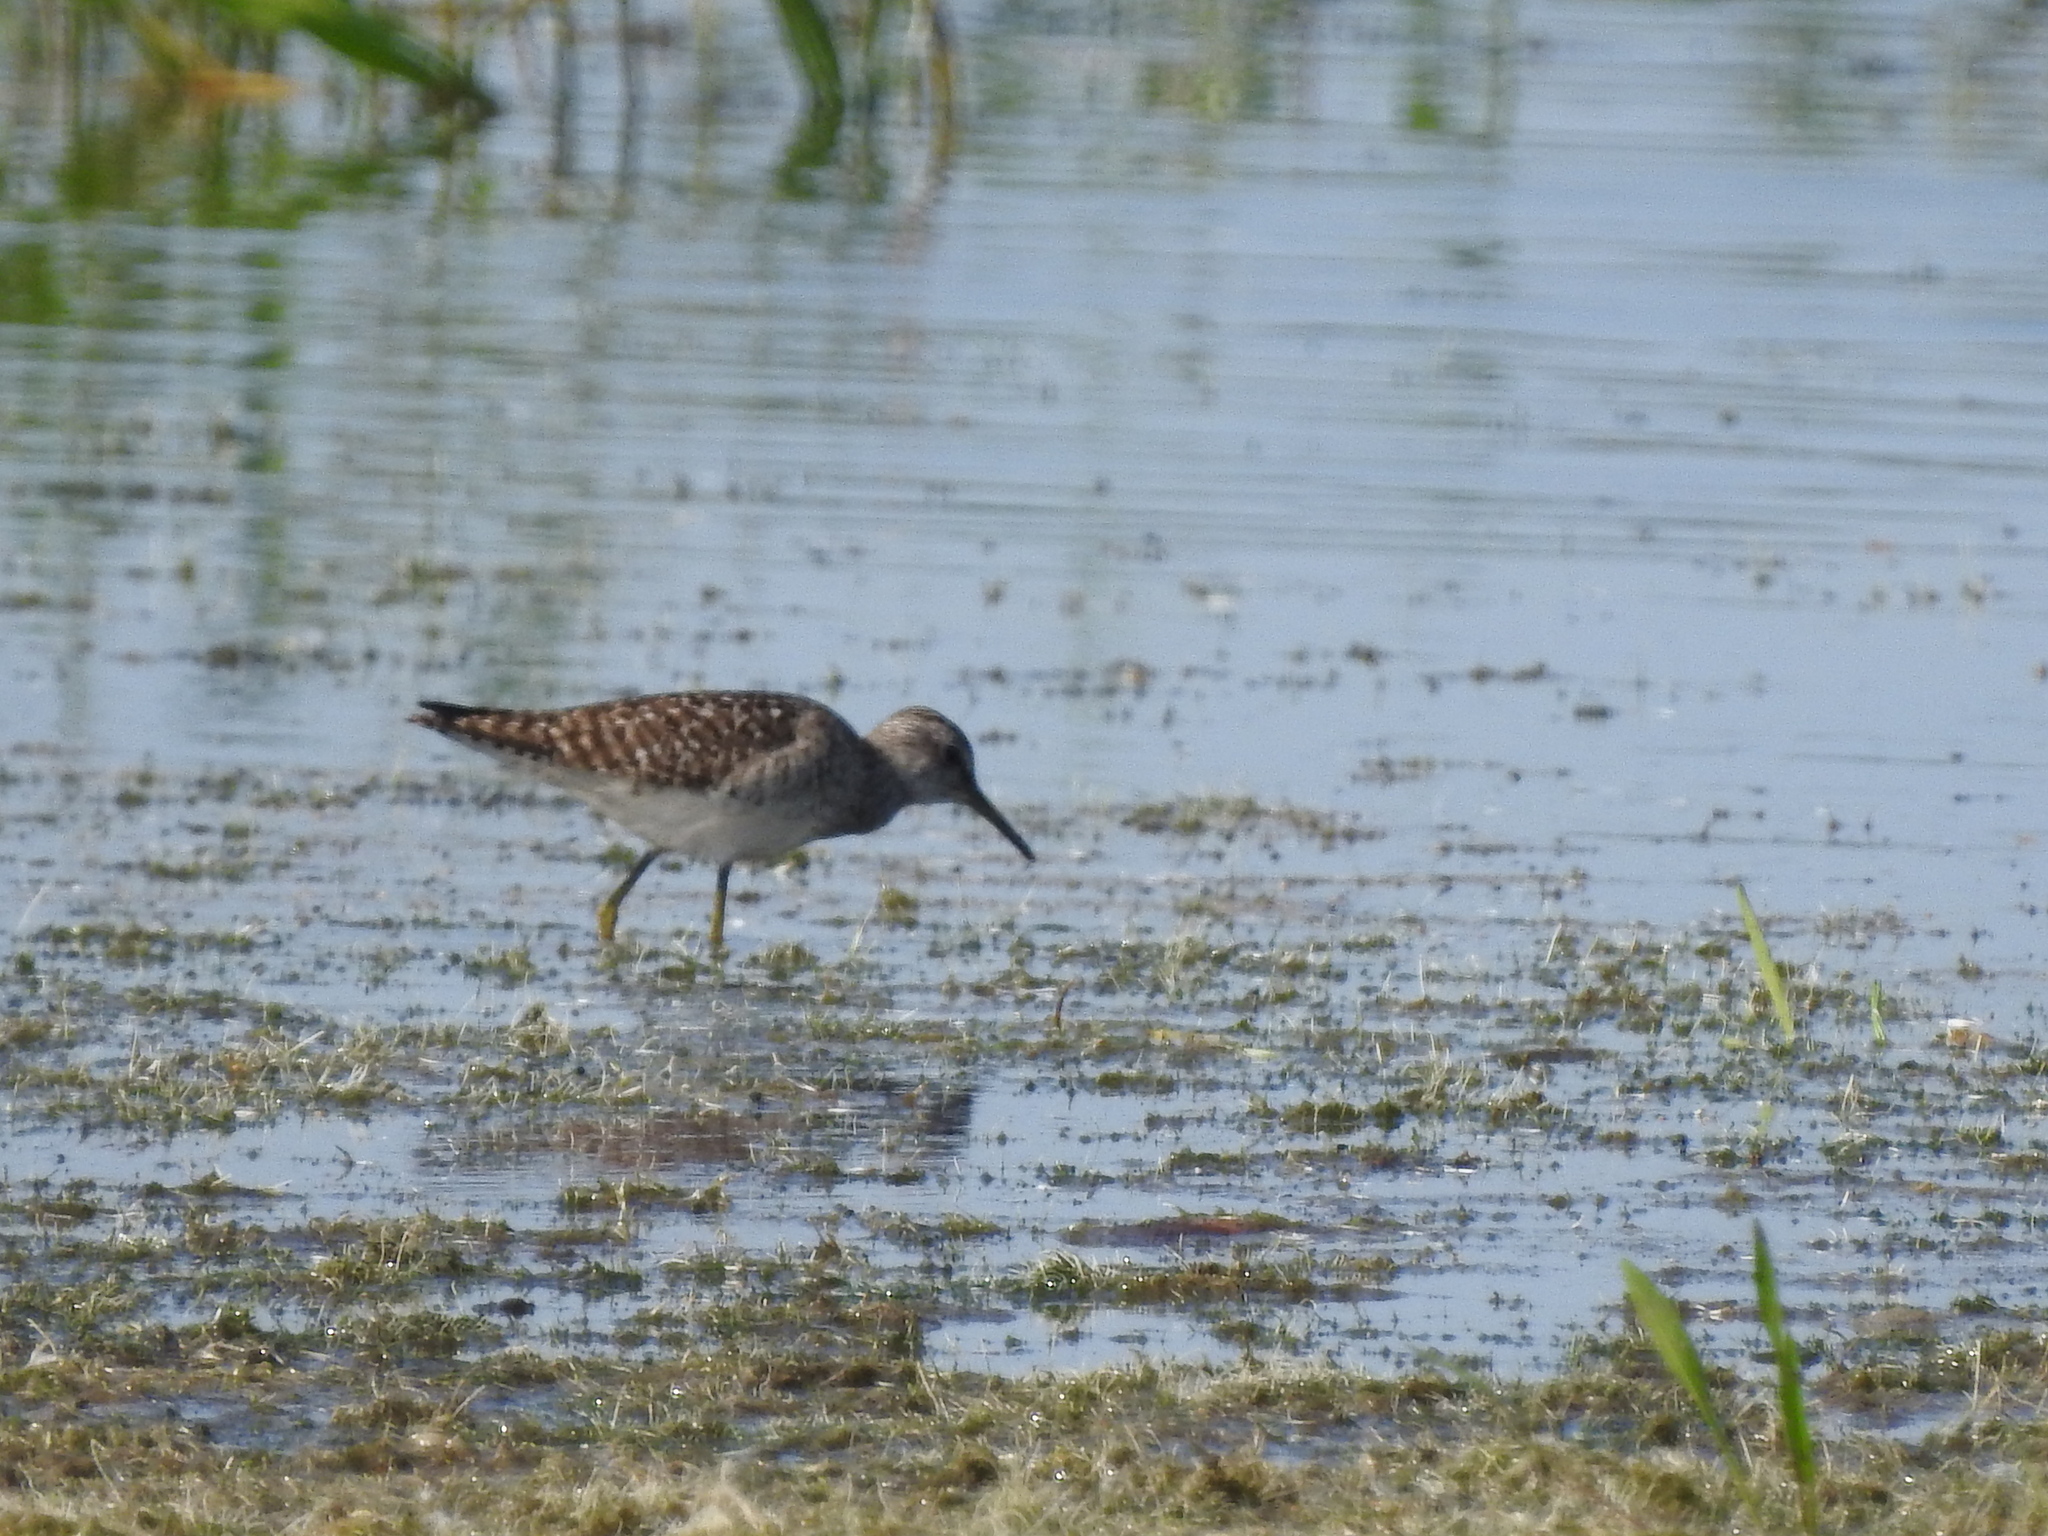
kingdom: Animalia
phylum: Chordata
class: Aves
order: Charadriiformes
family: Scolopacidae
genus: Tringa
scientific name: Tringa glareola
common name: Wood sandpiper
